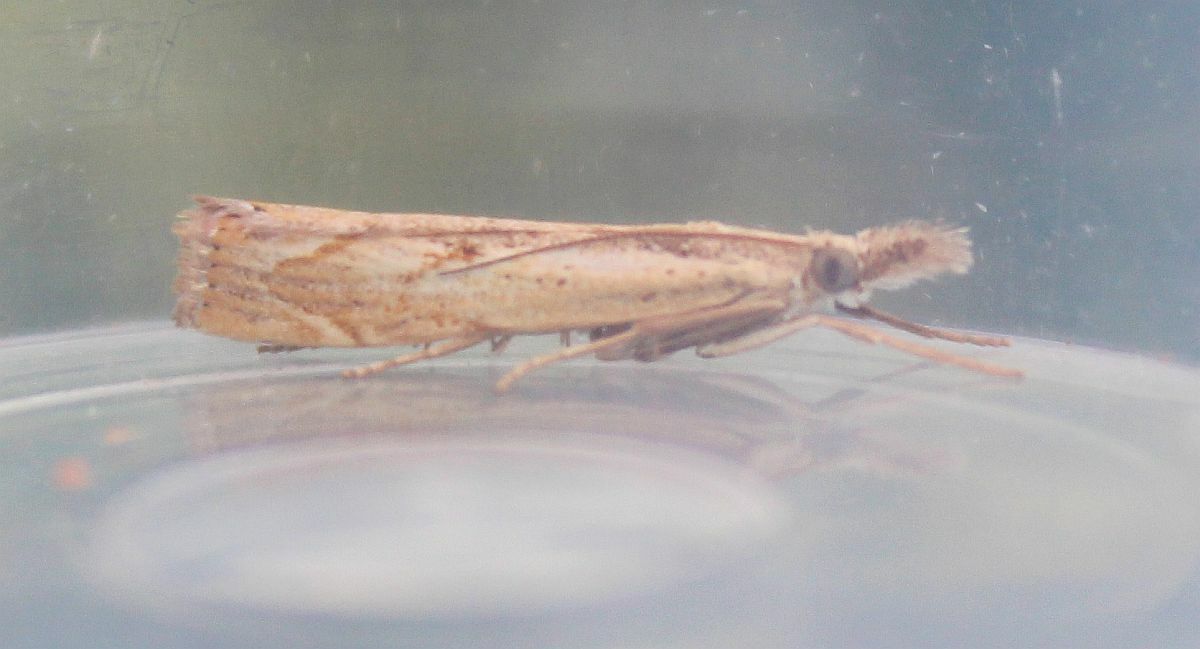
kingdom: Animalia
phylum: Arthropoda
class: Insecta
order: Lepidoptera
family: Crambidae
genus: Agriphila
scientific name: Agriphila geniculea
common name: Elbow-stripe grass-veneer
